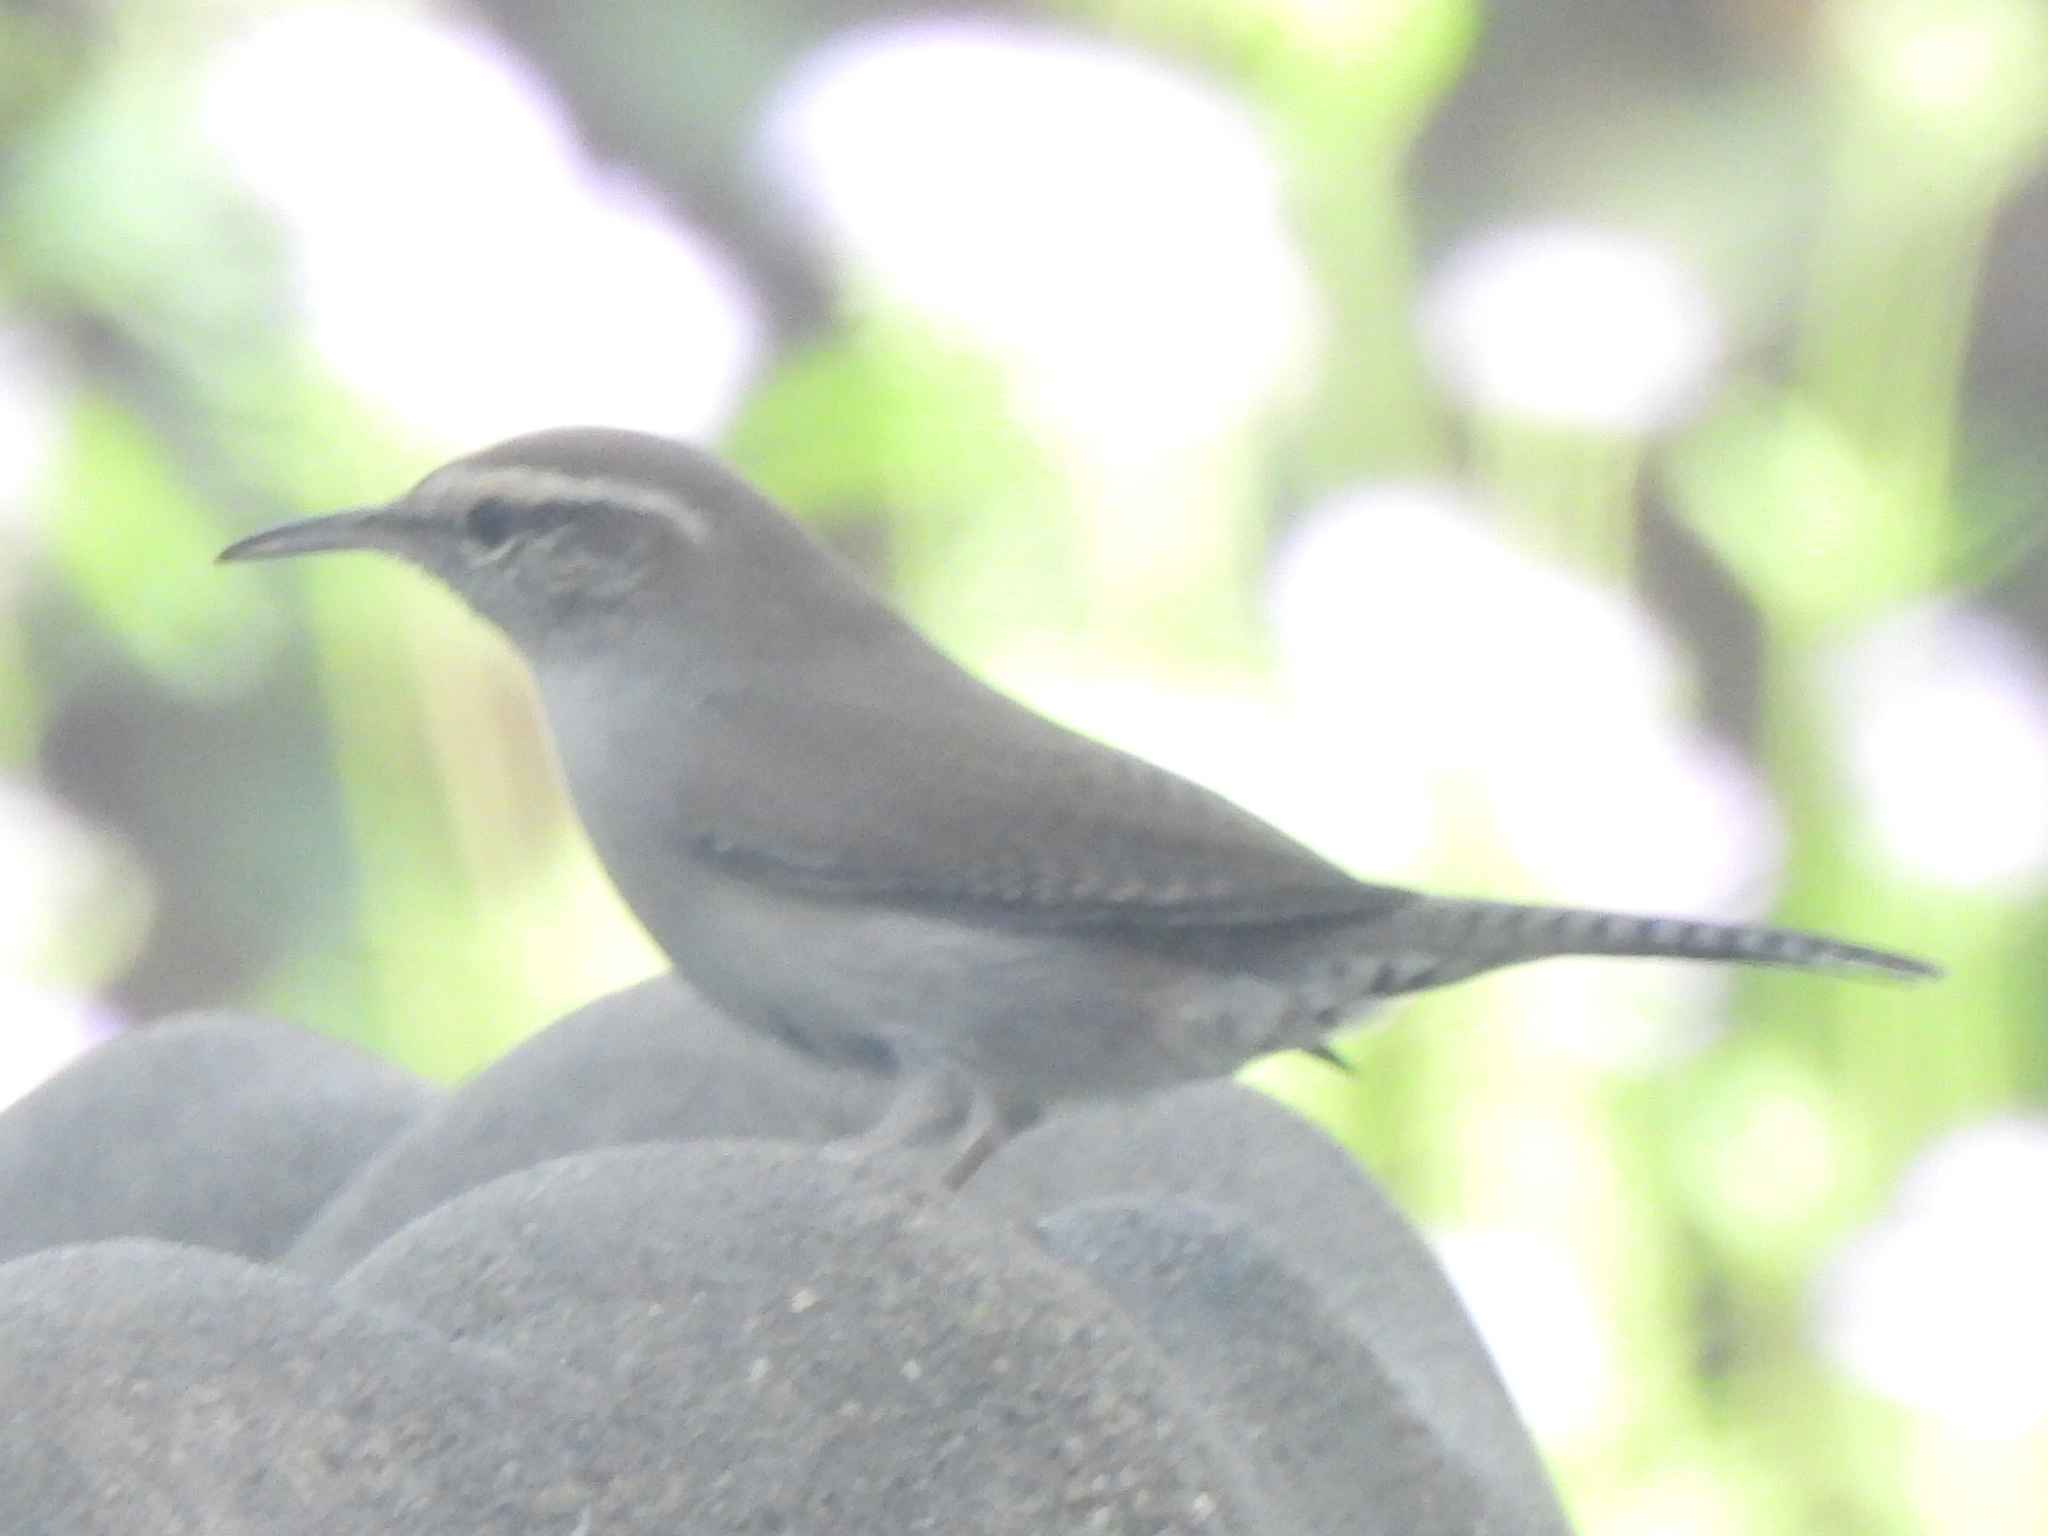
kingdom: Animalia
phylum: Chordata
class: Aves
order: Passeriformes
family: Troglodytidae
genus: Thryomanes
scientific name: Thryomanes bewickii
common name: Bewick's wren
